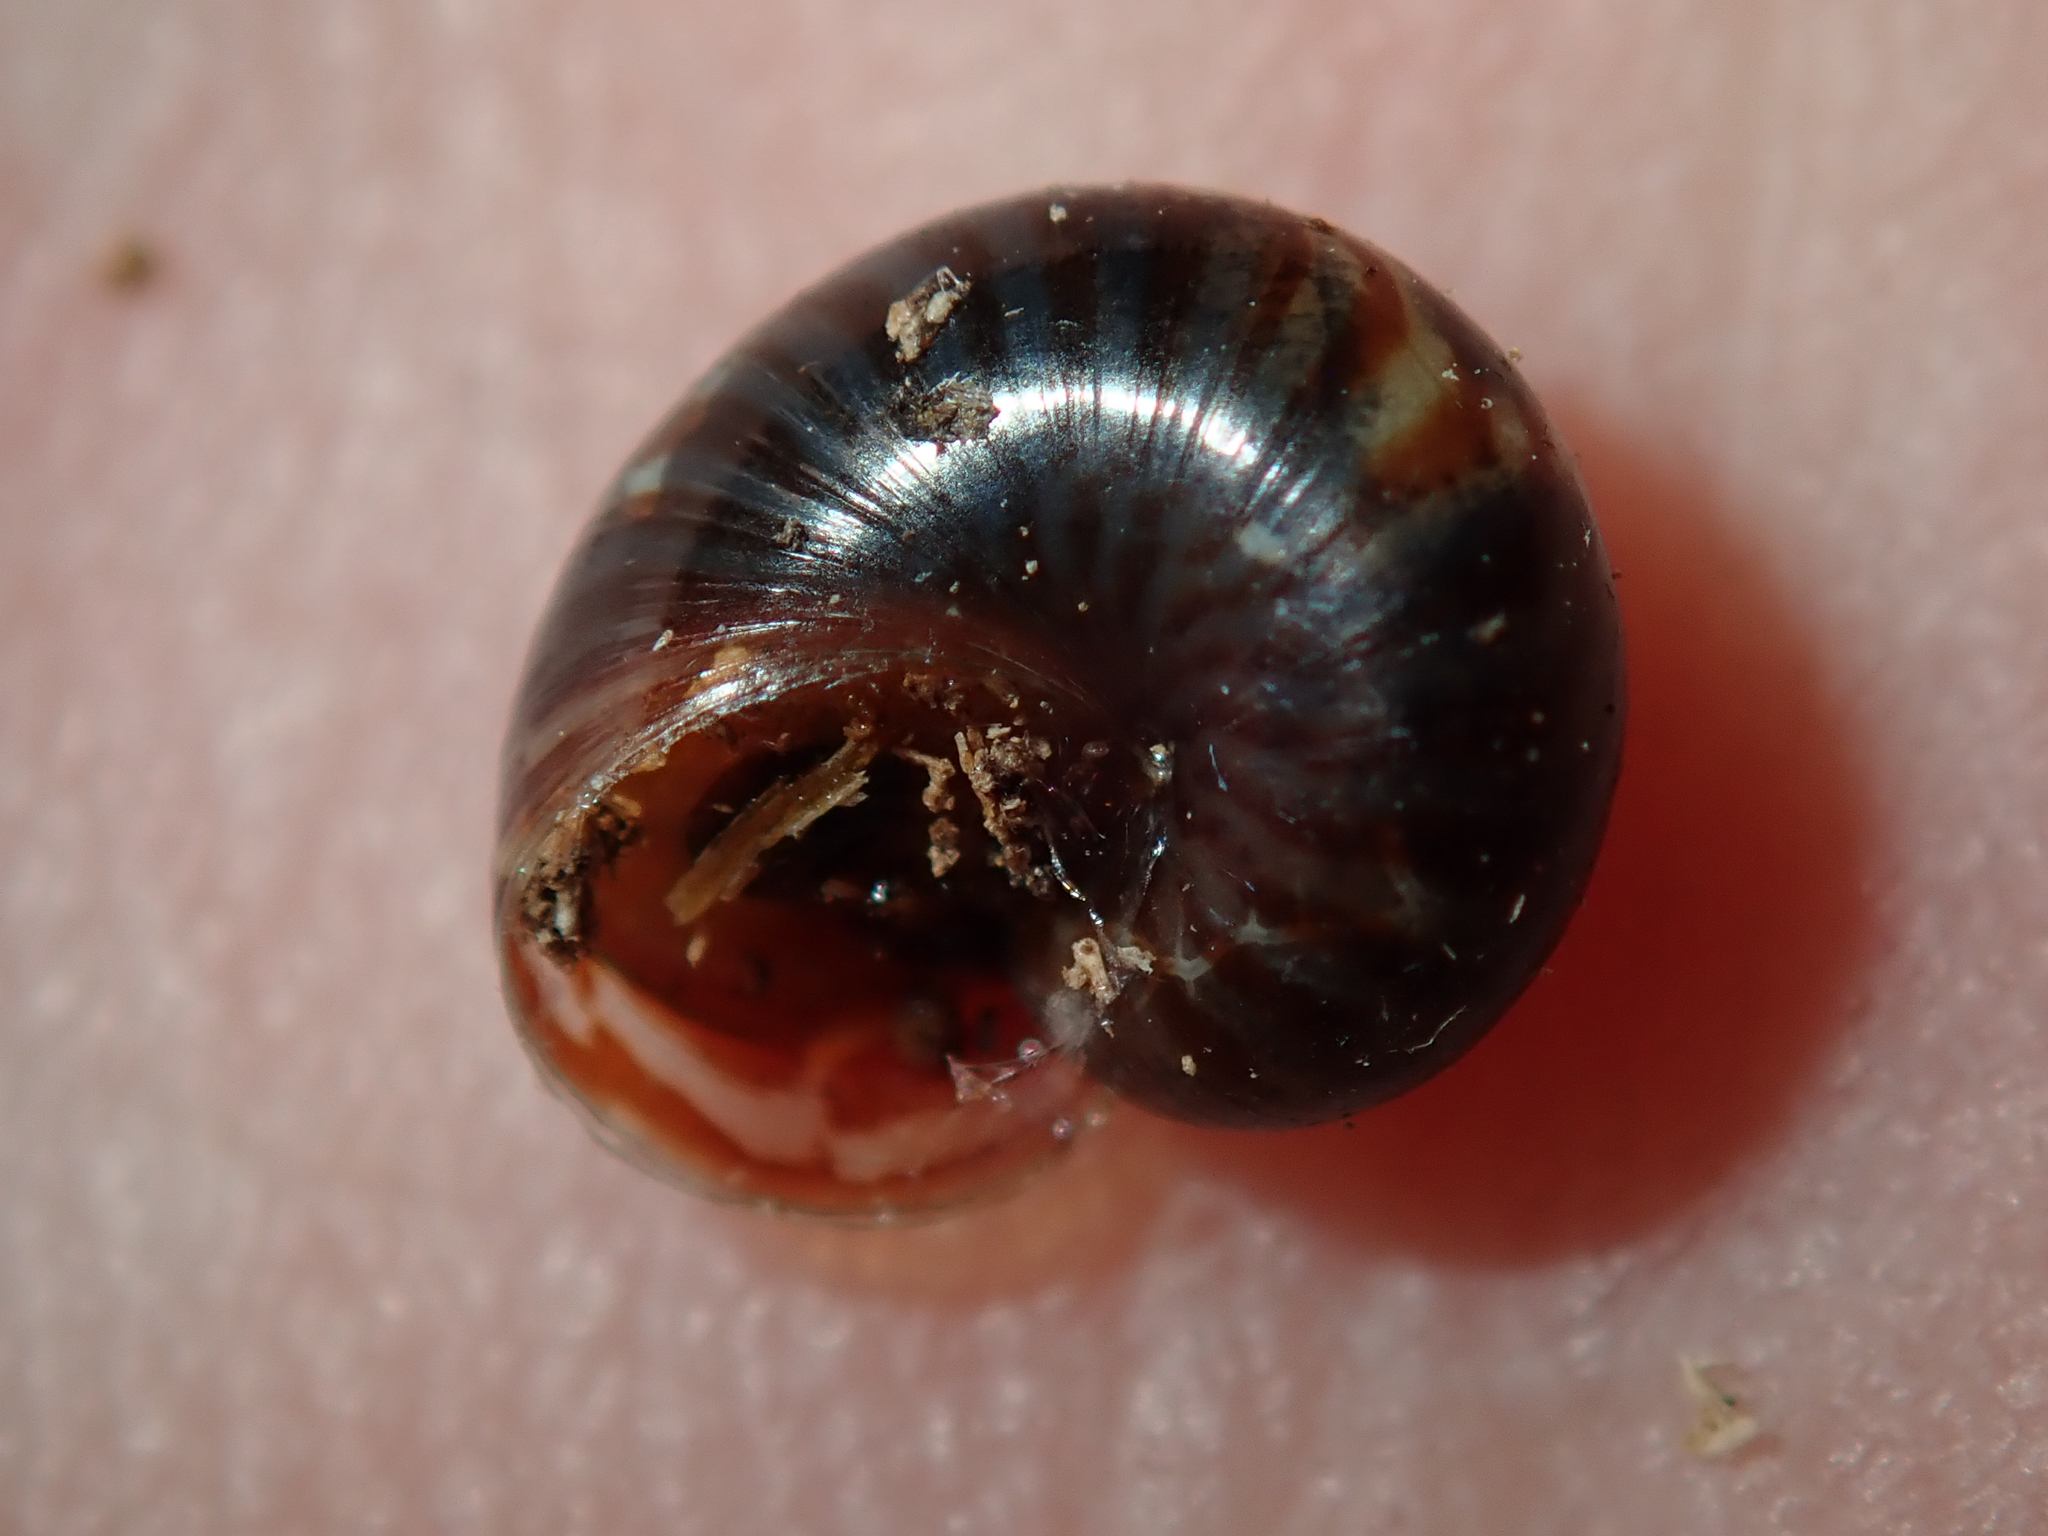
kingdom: Animalia
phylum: Mollusca
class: Gastropoda
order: Stylommatophora
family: Charopidae
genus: Flammulina
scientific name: Flammulina zebra
